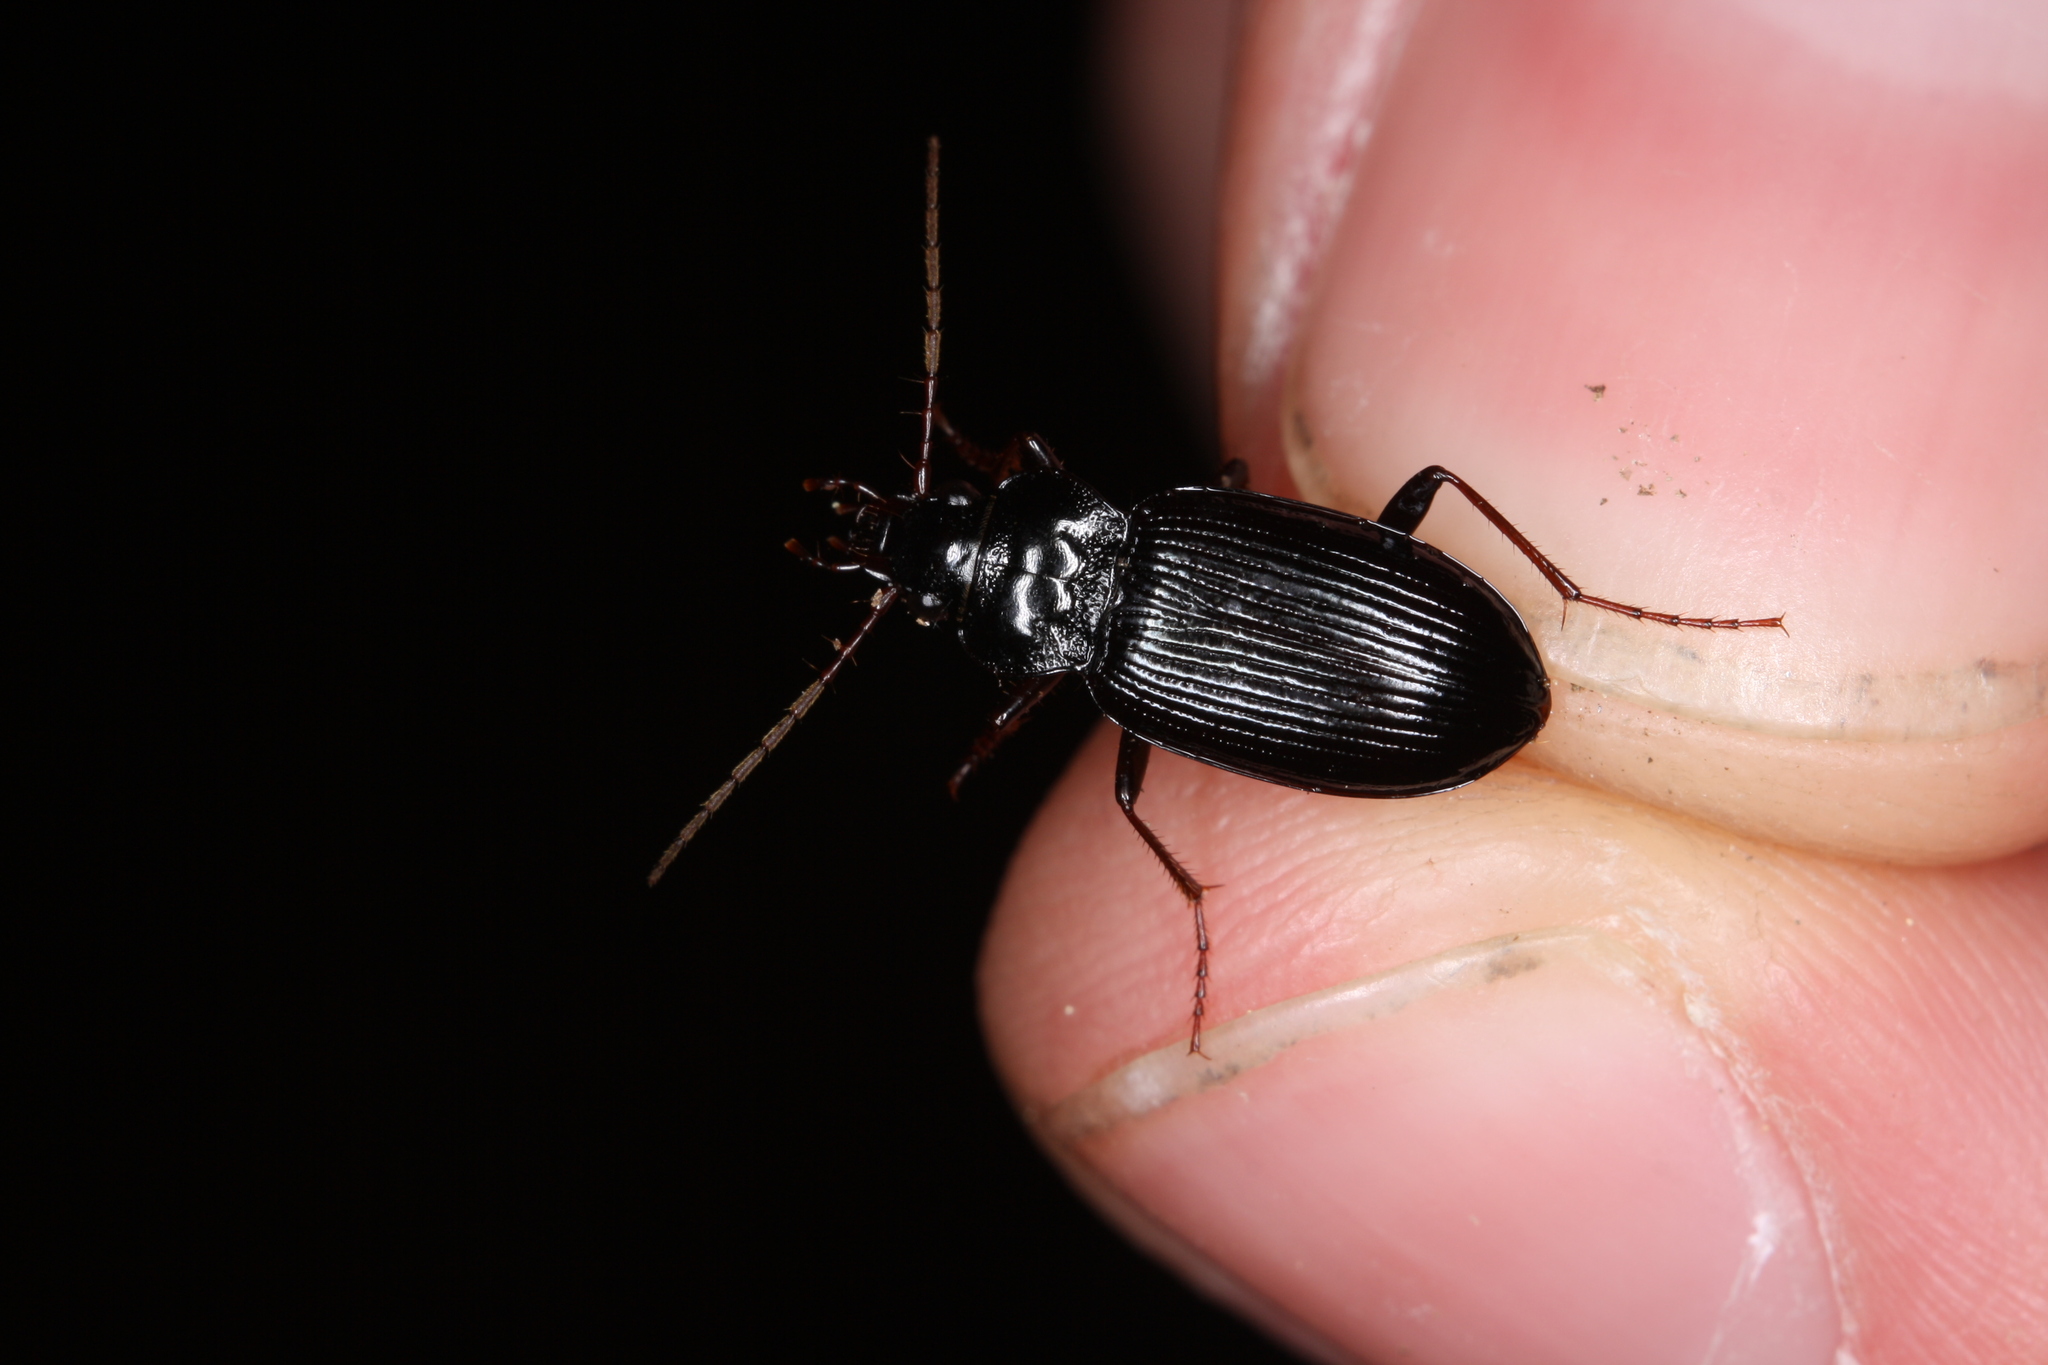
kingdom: Animalia
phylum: Arthropoda
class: Insecta
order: Coleoptera
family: Carabidae
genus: Nebria
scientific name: Nebria brevicollis
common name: Short-necked gazelle beetle
